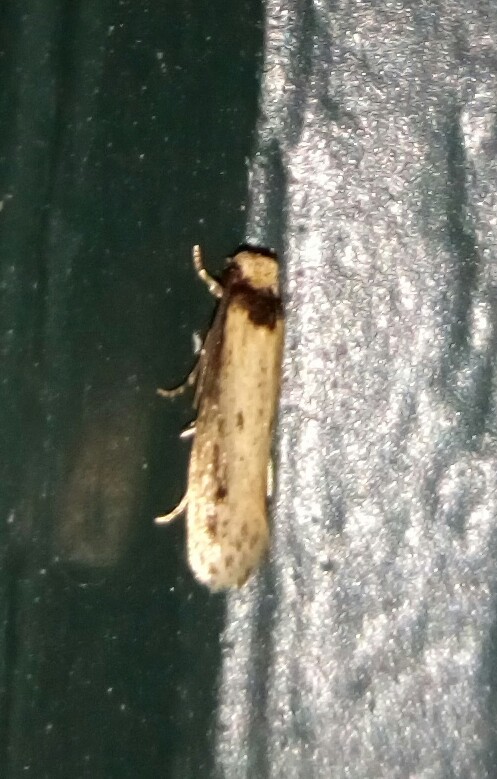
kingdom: Animalia
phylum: Arthropoda
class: Insecta
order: Lepidoptera
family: Tineidae
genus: Tinea
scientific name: Tinea apicimaculella
